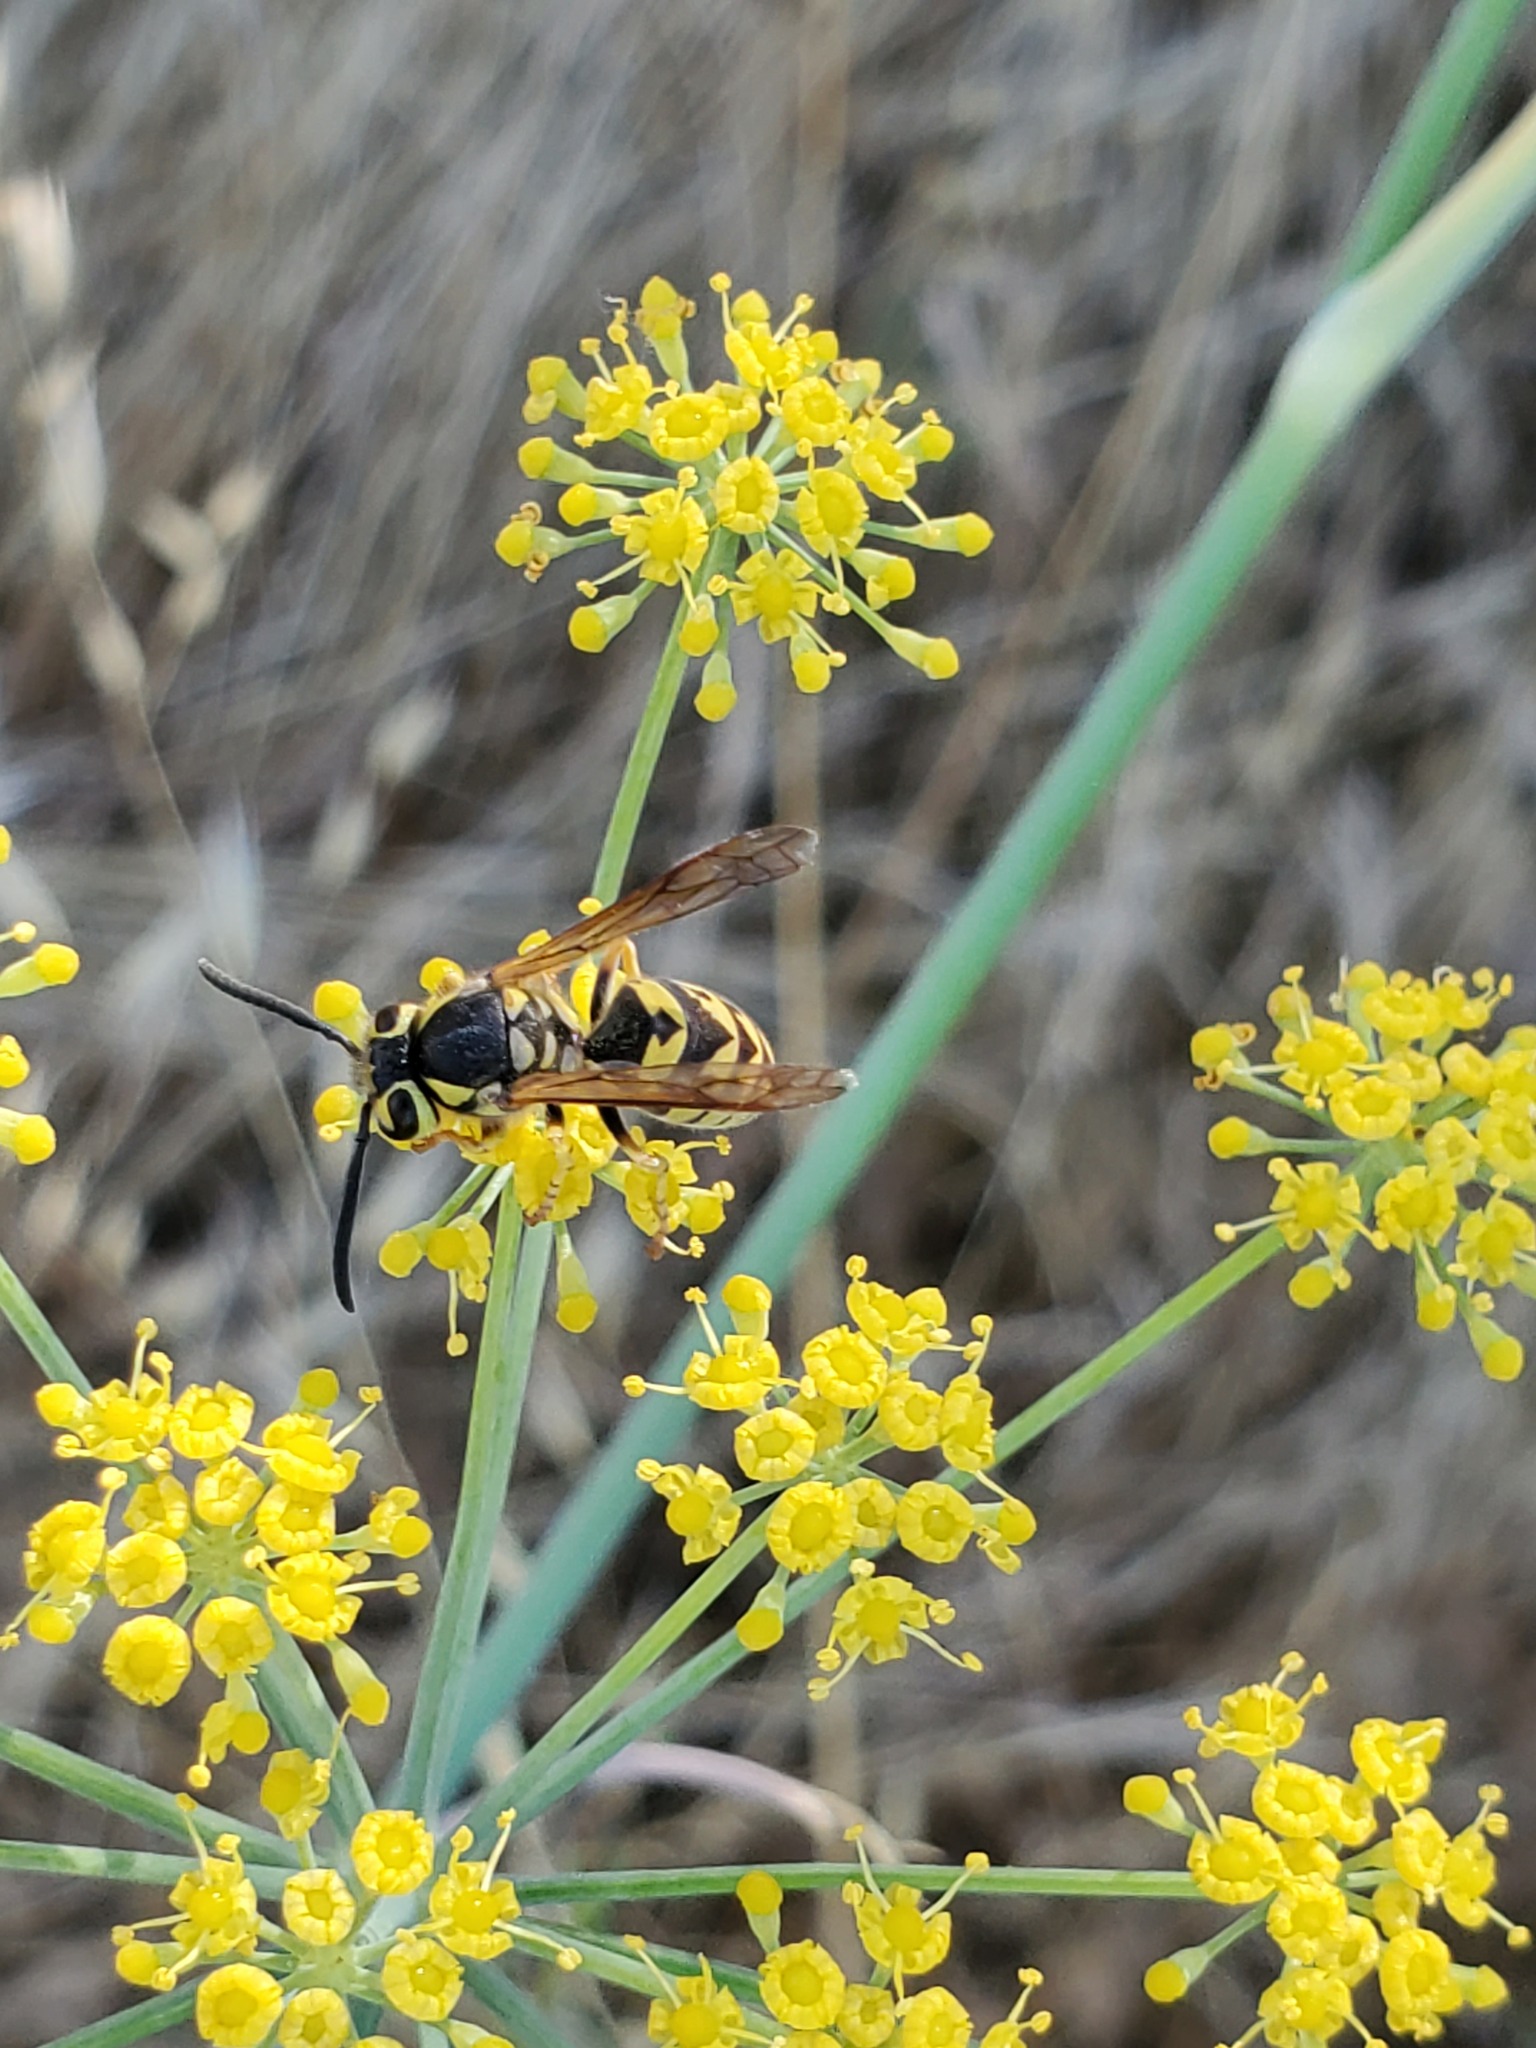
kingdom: Animalia
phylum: Arthropoda
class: Insecta
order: Hymenoptera
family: Vespidae
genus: Vespula
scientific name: Vespula pensylvanica
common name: Western yellowjacket
